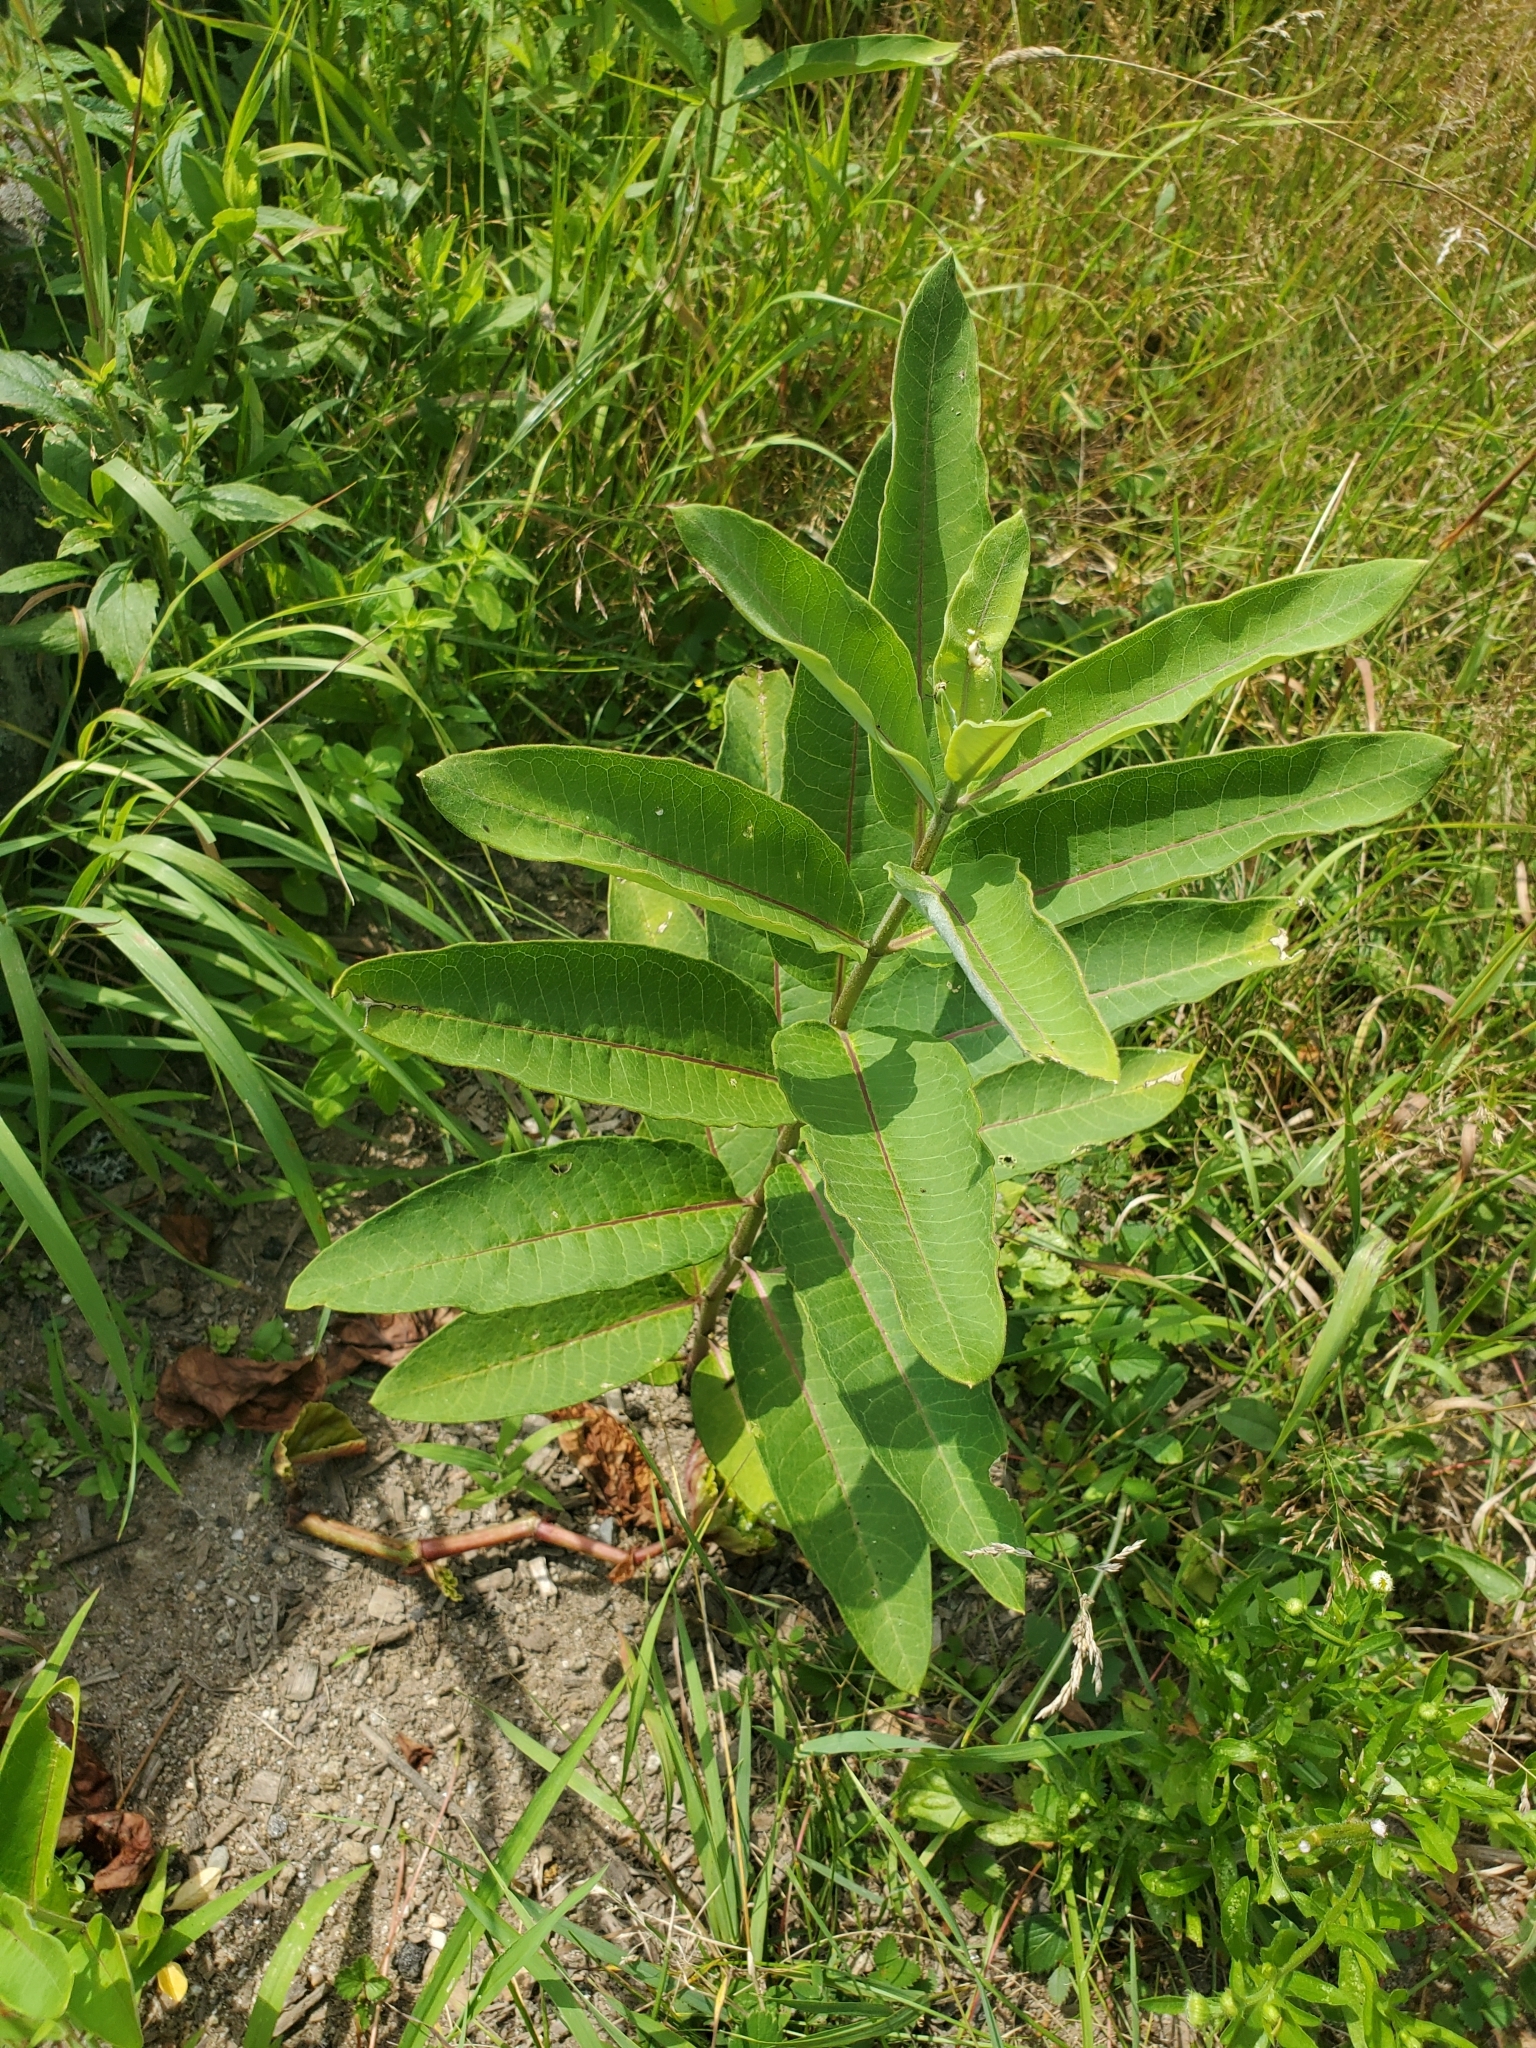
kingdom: Plantae
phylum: Tracheophyta
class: Magnoliopsida
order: Gentianales
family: Apocynaceae
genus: Asclepias
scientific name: Asclepias syriaca
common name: Common milkweed
